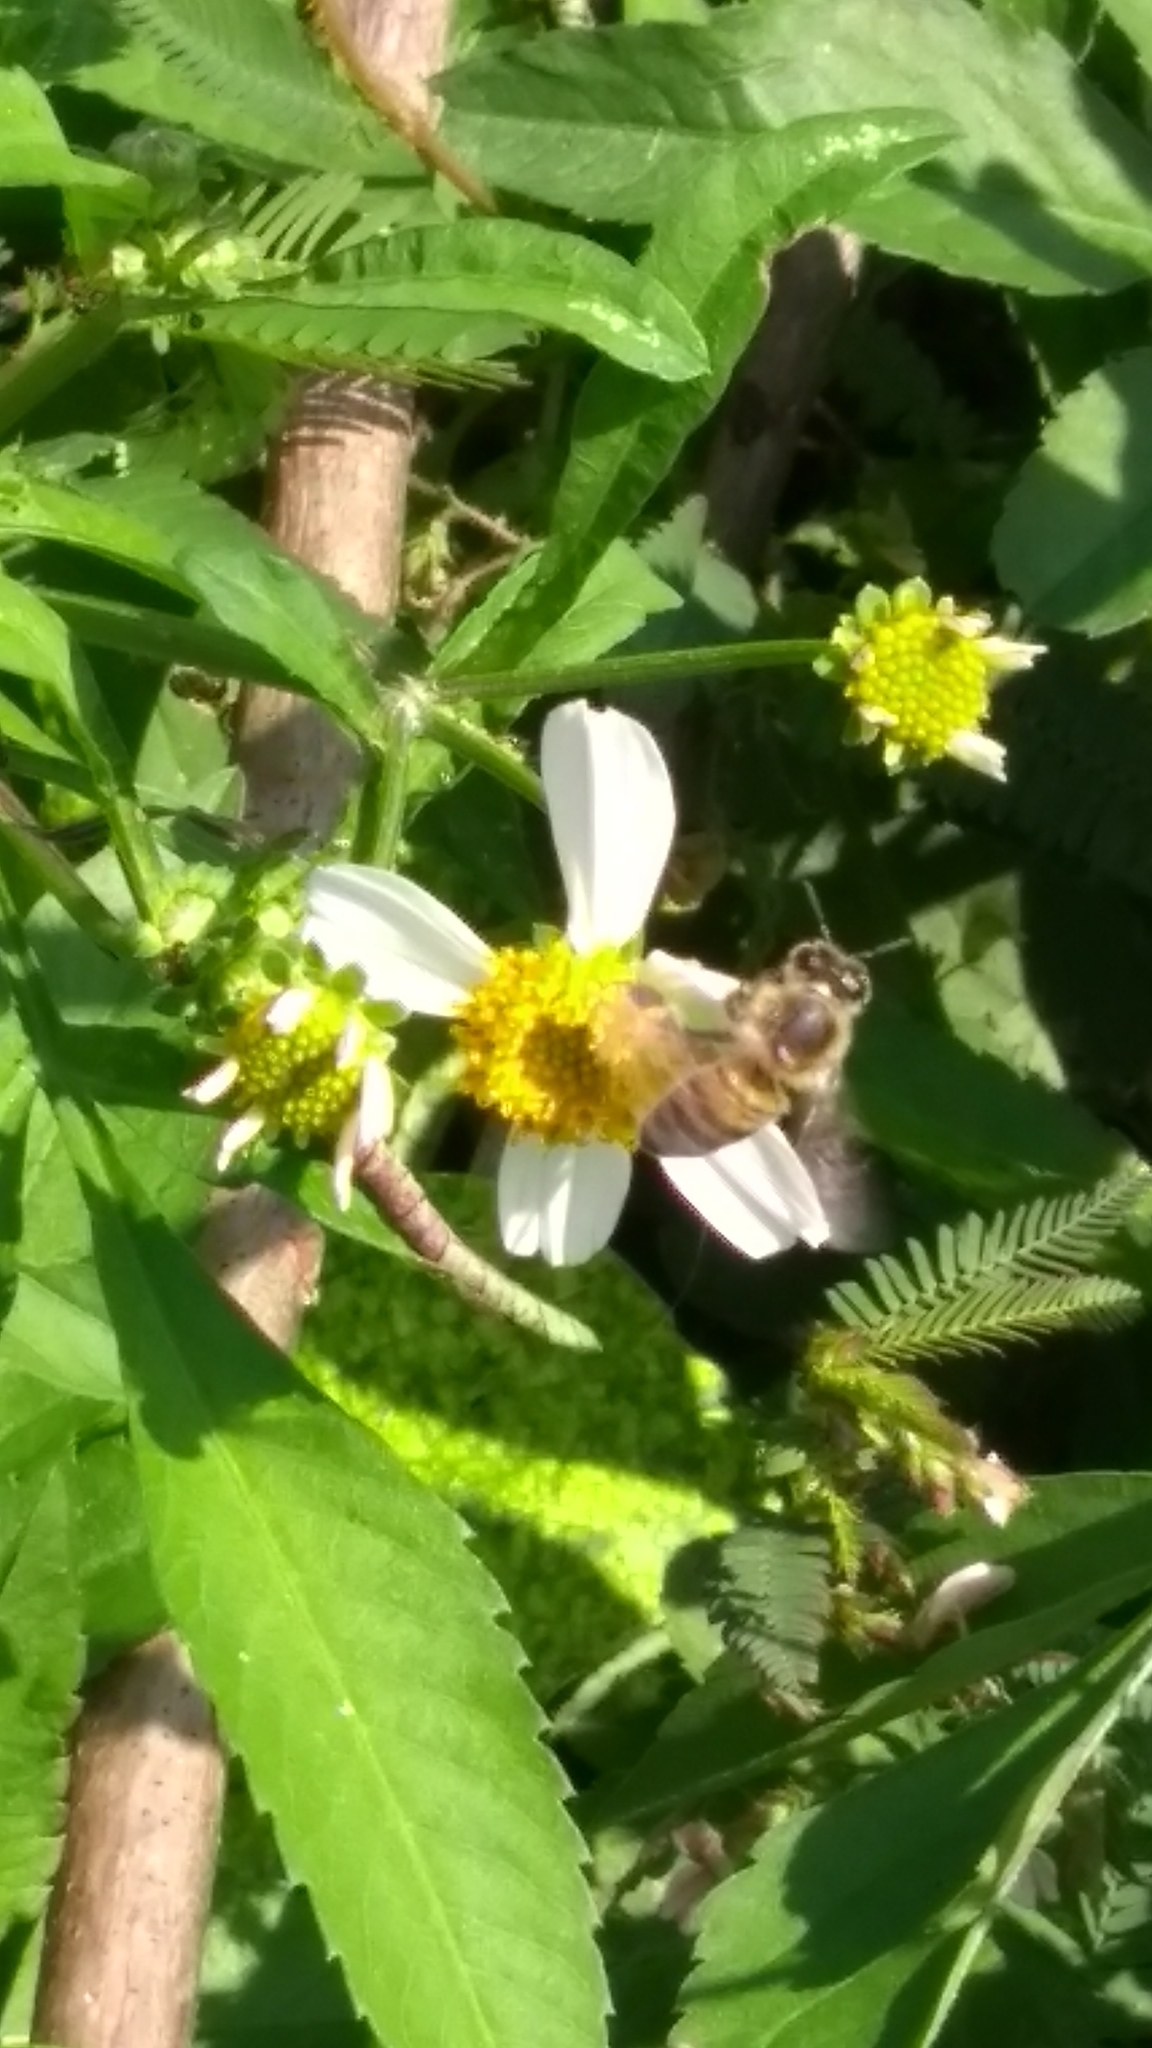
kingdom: Animalia
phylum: Arthropoda
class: Insecta
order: Hymenoptera
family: Apidae
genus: Apis
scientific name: Apis mellifera
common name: Honey bee
